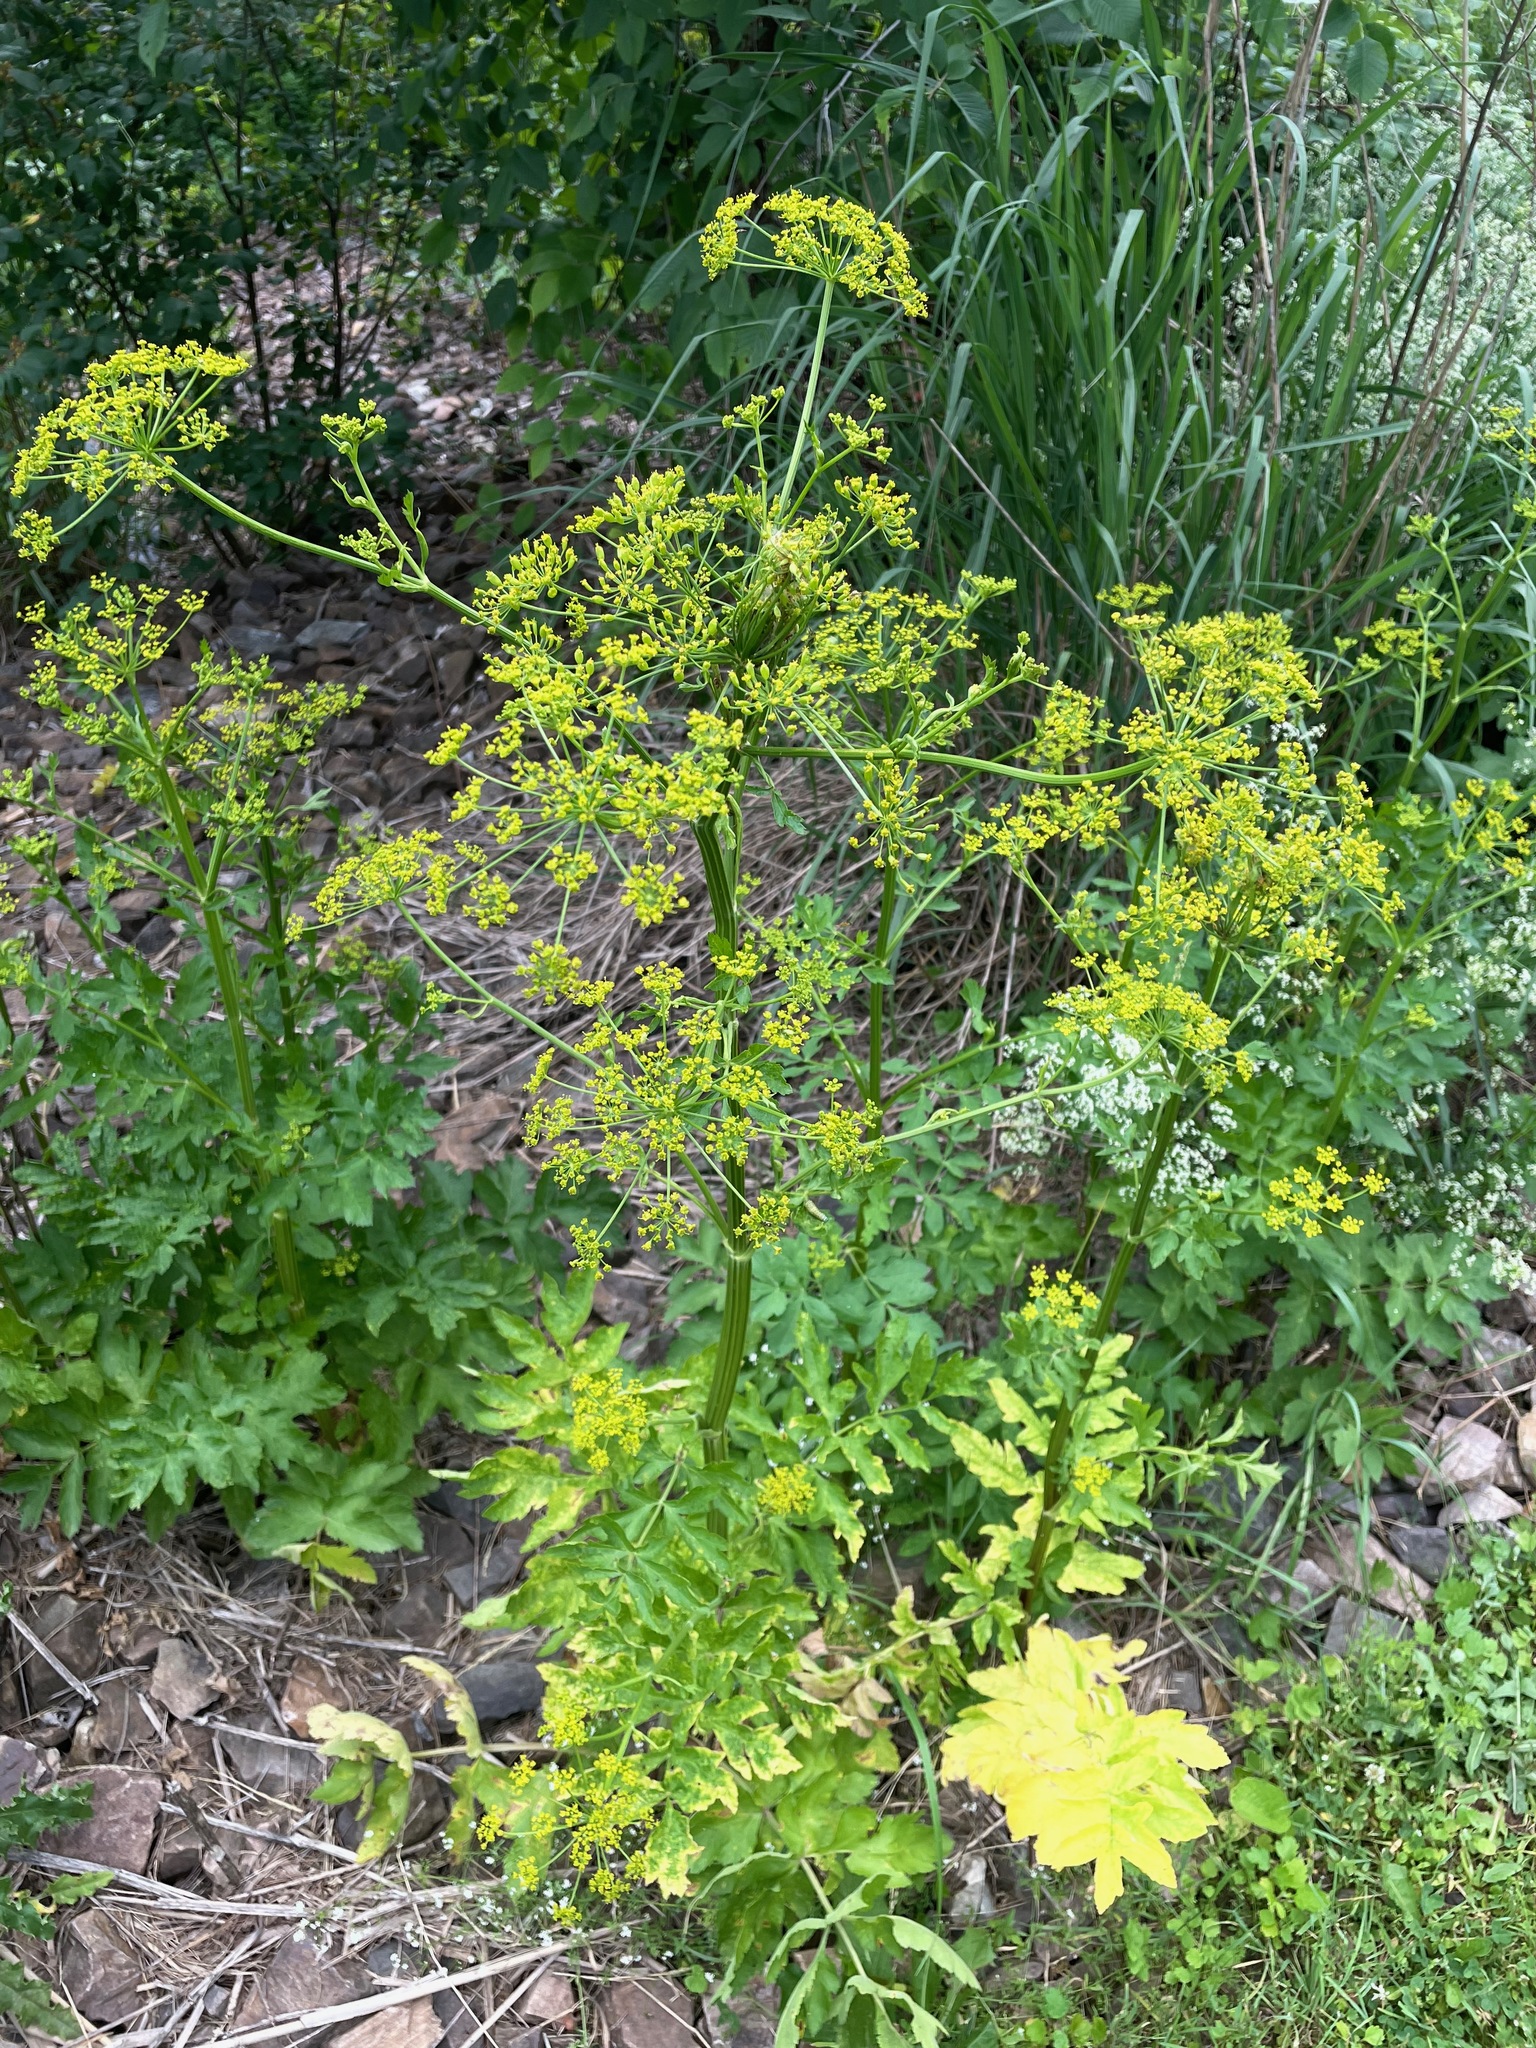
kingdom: Plantae
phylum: Tracheophyta
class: Magnoliopsida
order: Apiales
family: Apiaceae
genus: Pastinaca
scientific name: Pastinaca sativa
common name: Wild parsnip
